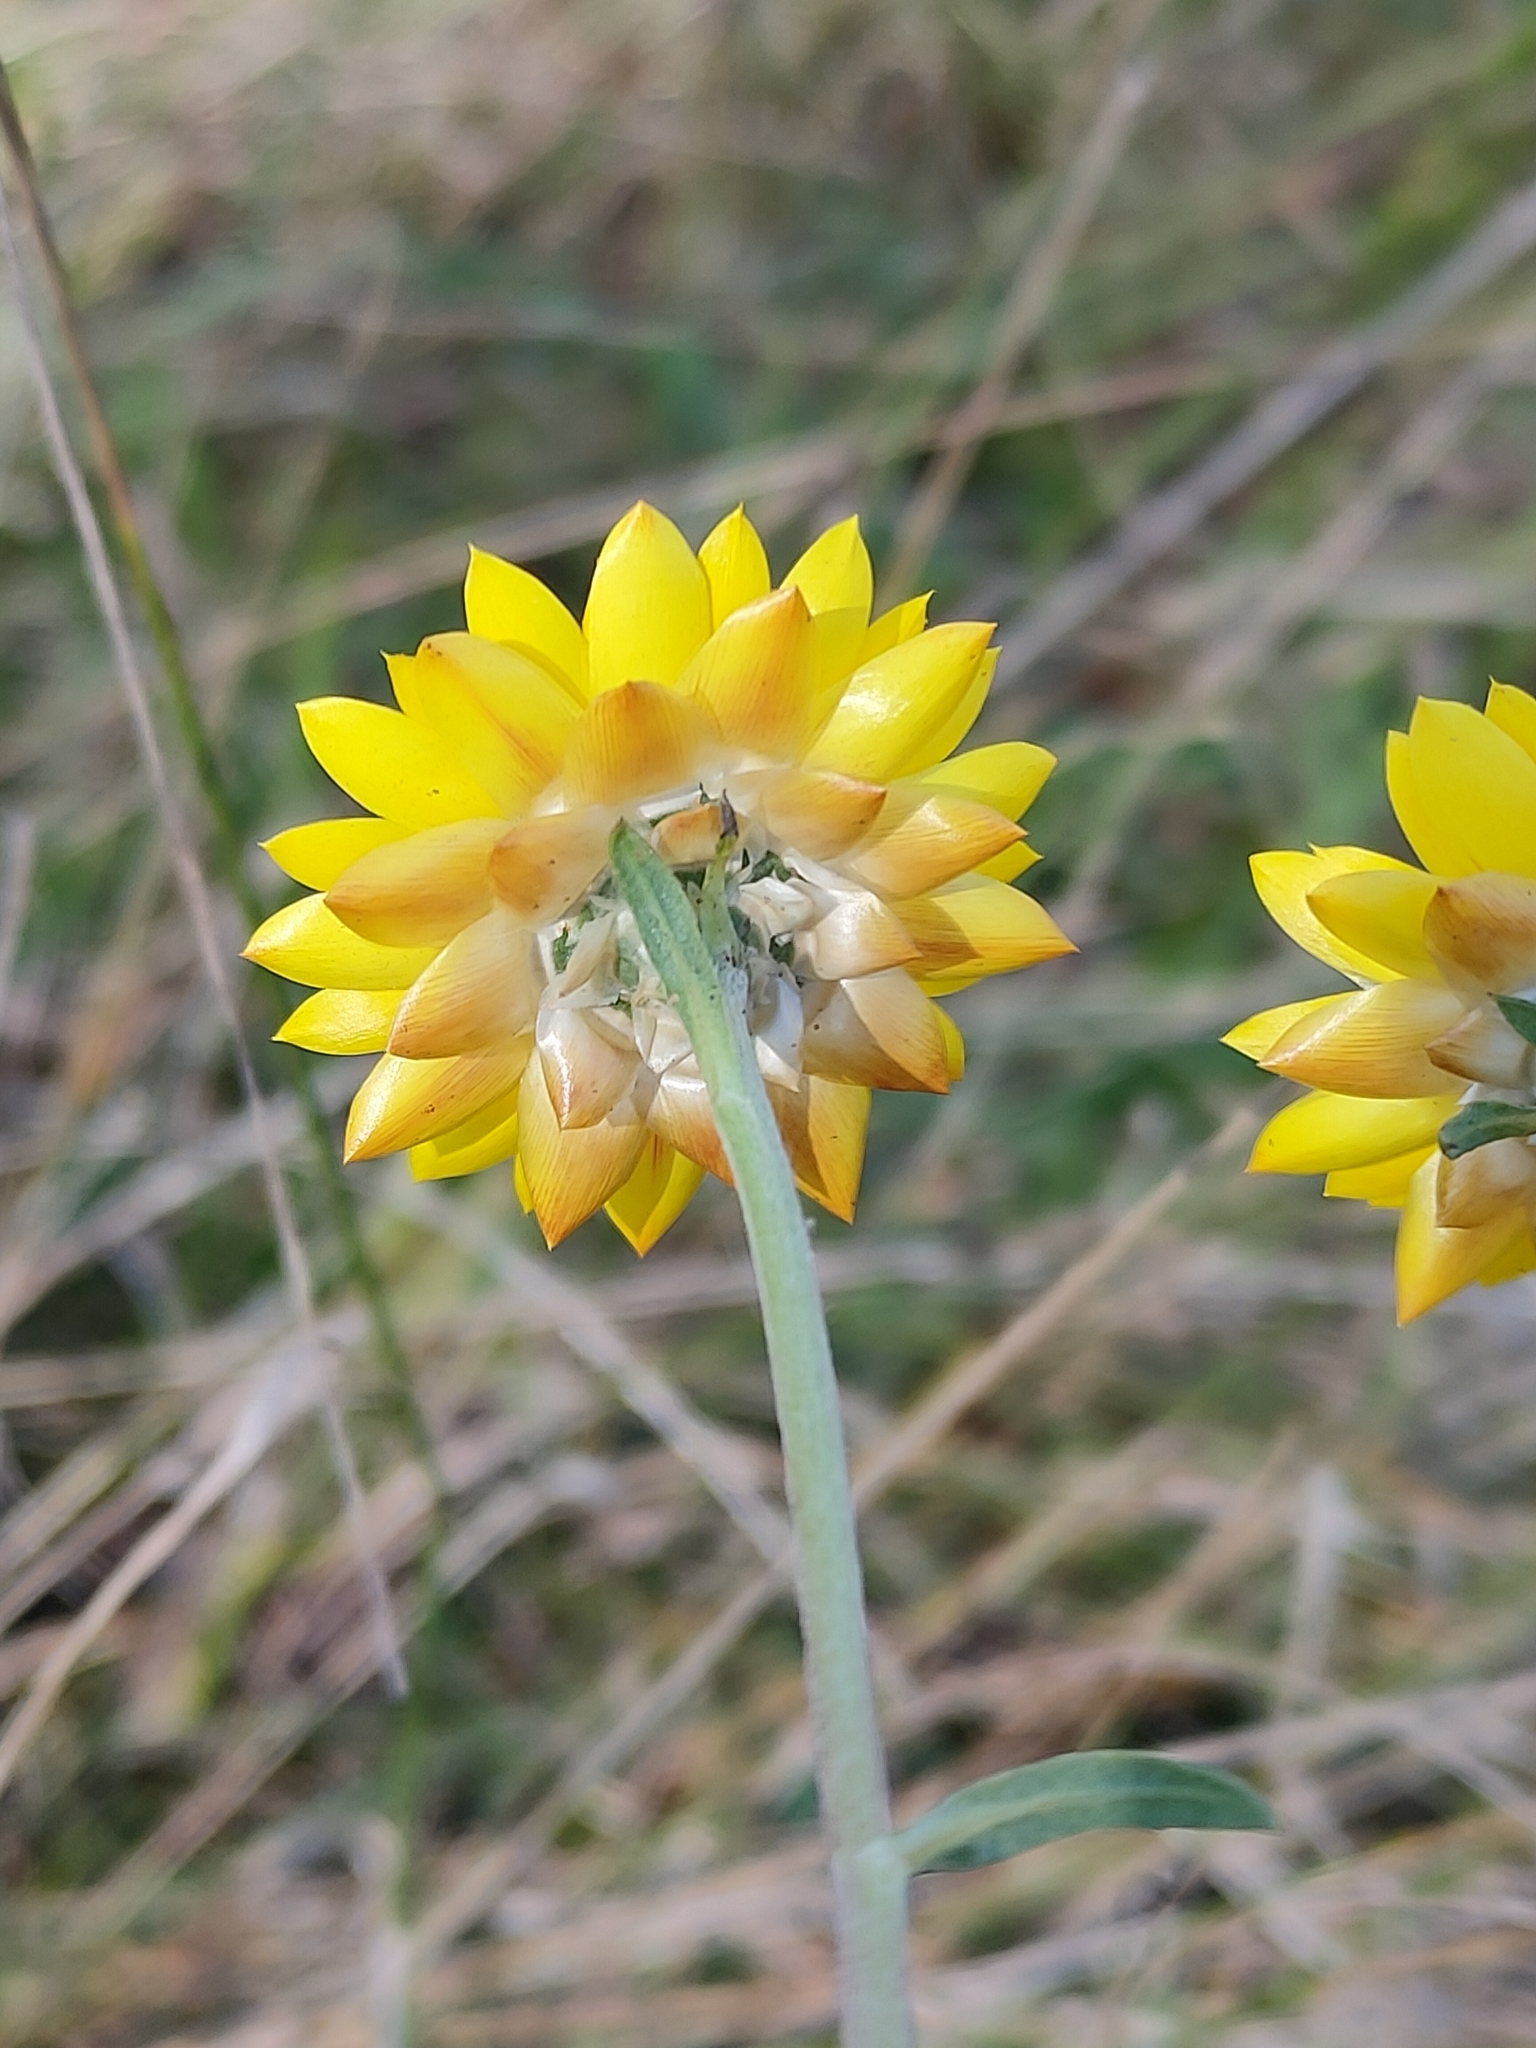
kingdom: Plantae
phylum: Tracheophyta
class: Magnoliopsida
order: Asterales
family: Asteraceae
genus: Xerochrysum
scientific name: Xerochrysum bracteatum
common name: Bracted strawflower
